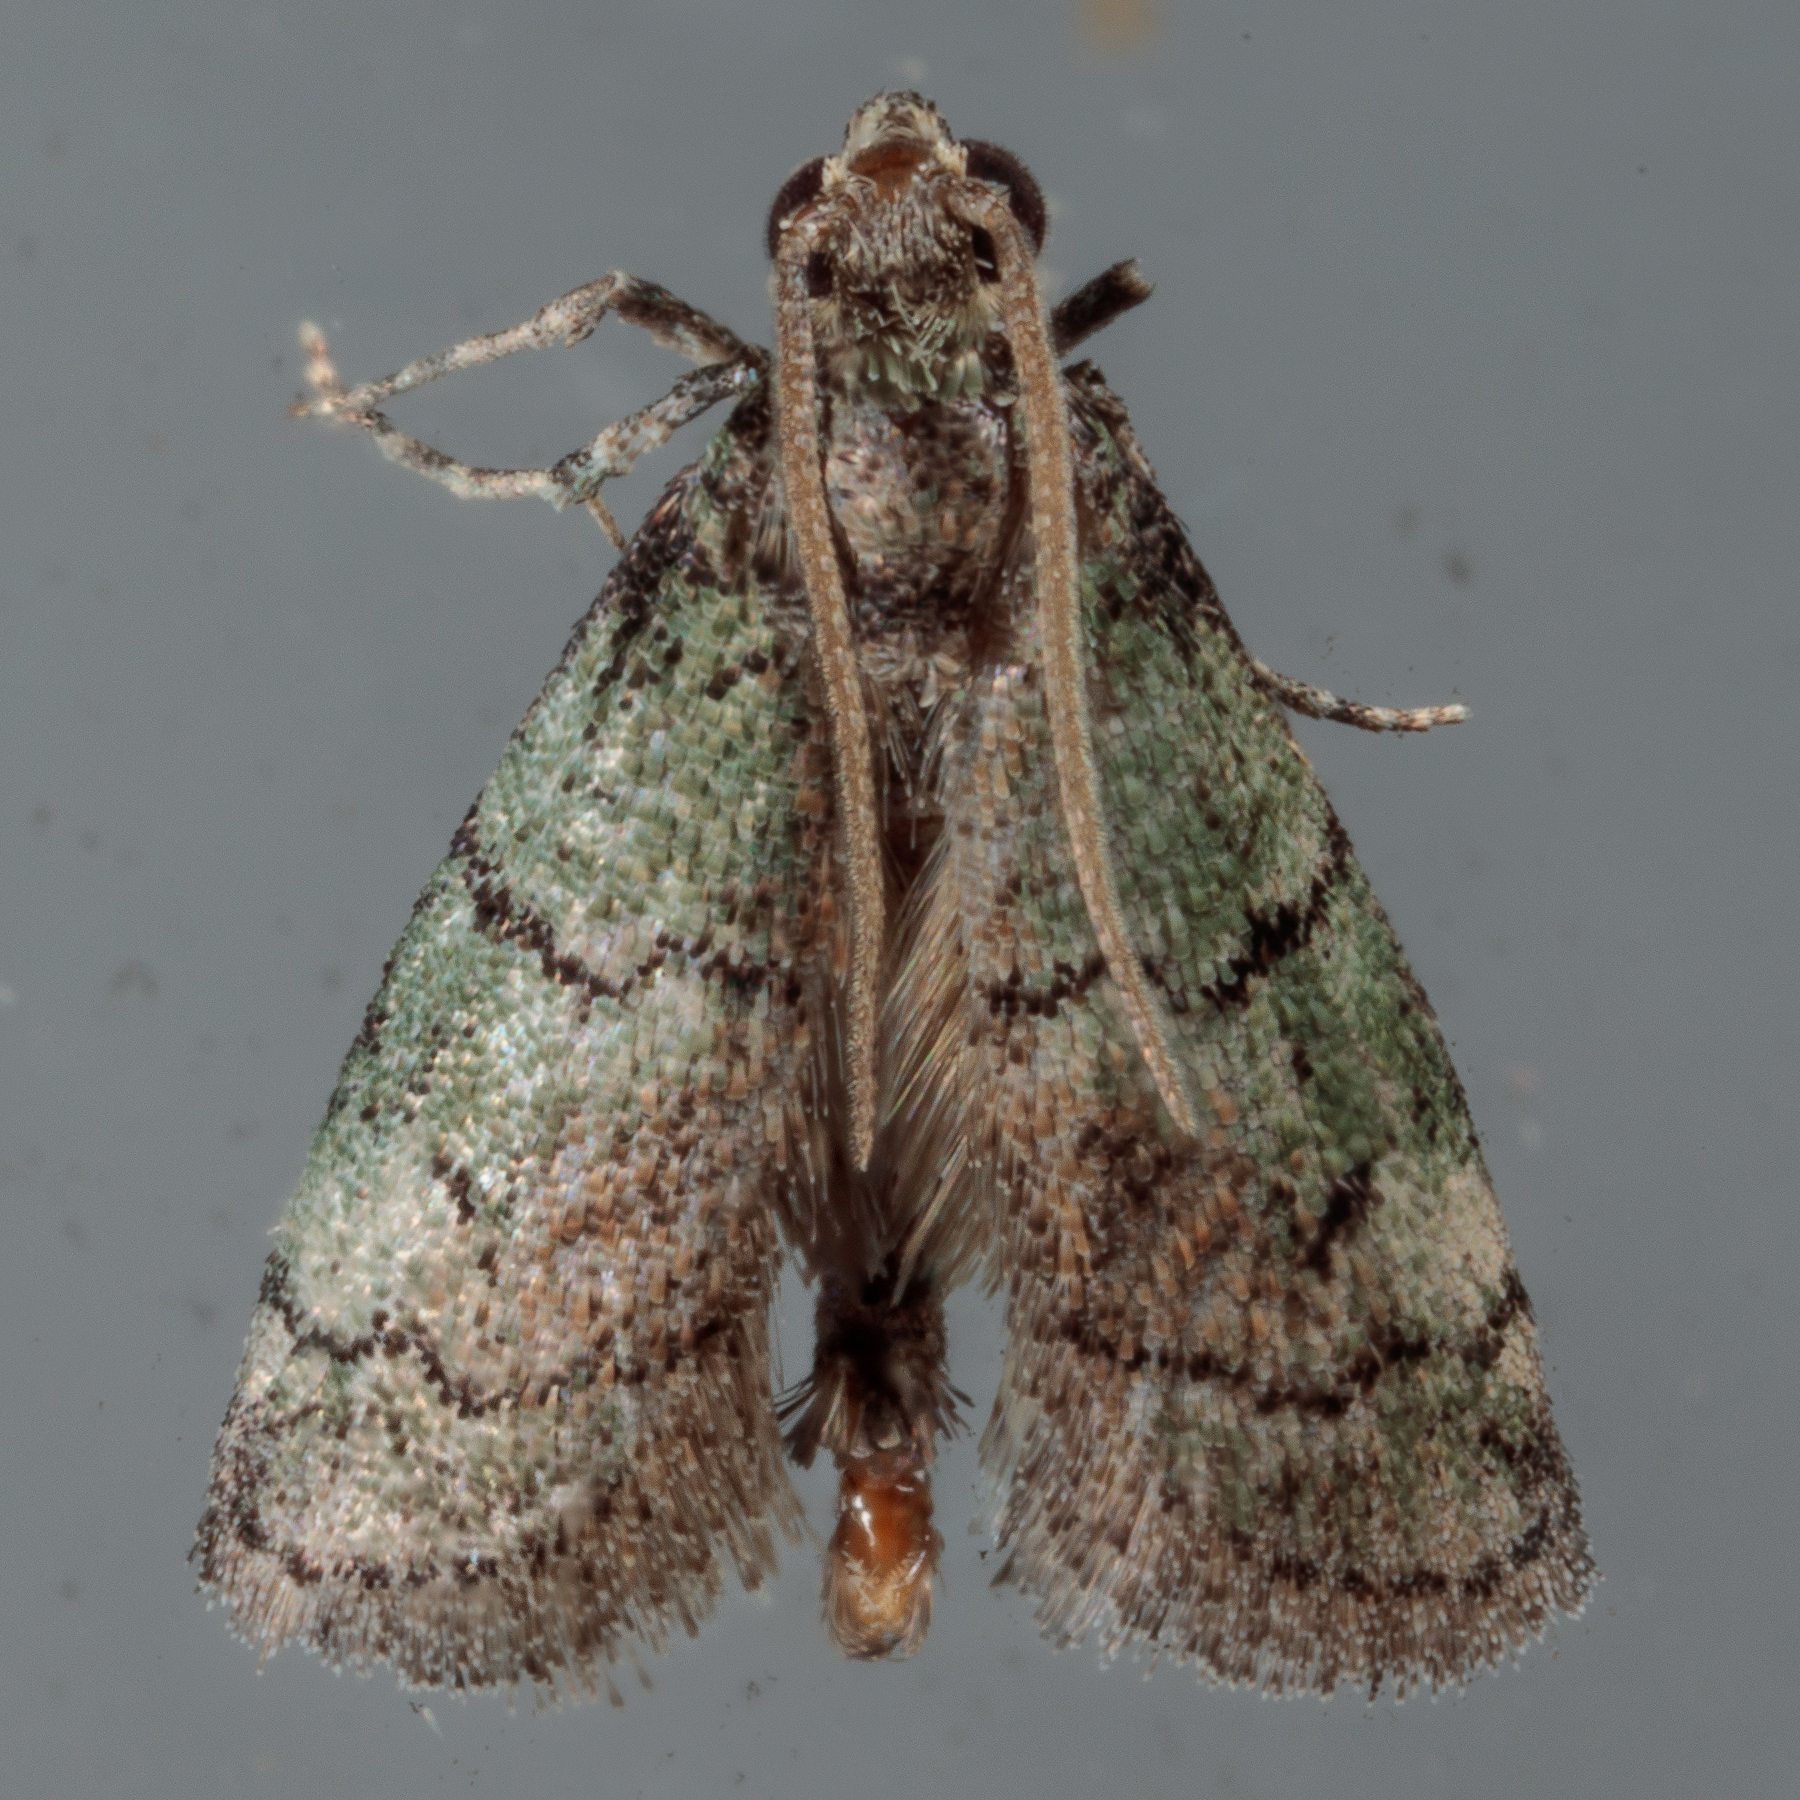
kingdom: Animalia
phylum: Arthropoda
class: Insecta
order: Lepidoptera
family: Pyralidae
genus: Cacotherapia
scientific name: Cacotherapia flexilinealis
